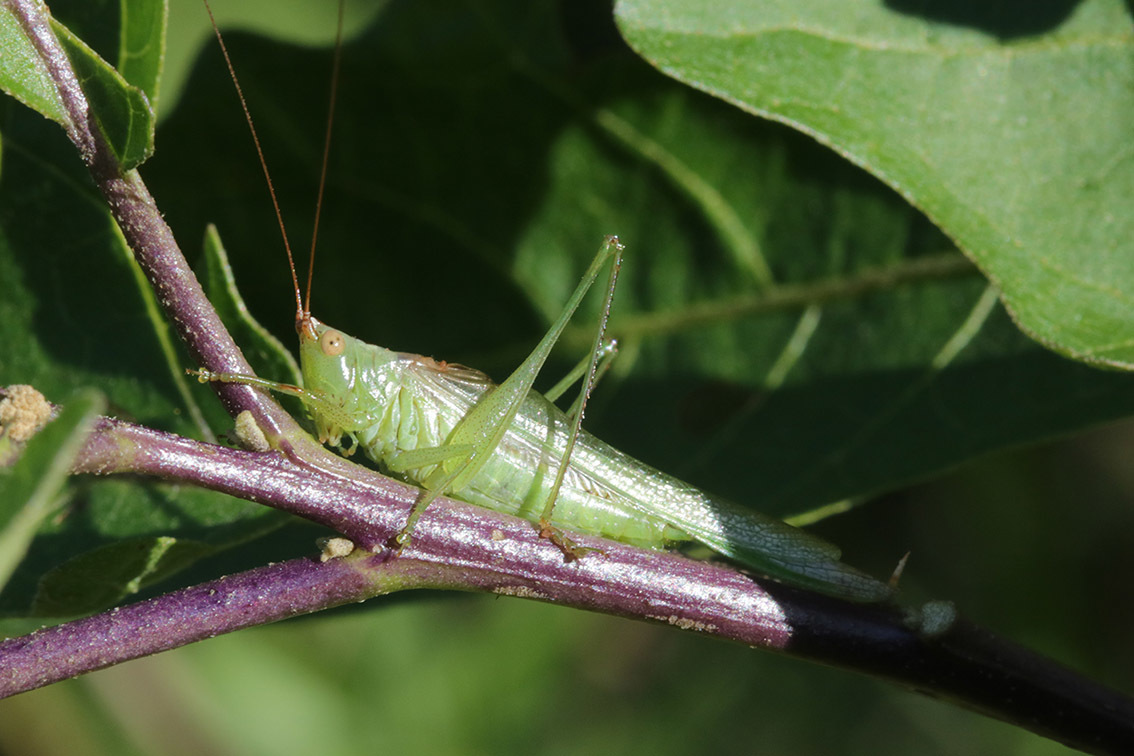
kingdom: Animalia
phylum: Arthropoda
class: Insecta
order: Orthoptera
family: Tettigoniidae
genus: Conocephalus
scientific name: Conocephalus longipes
